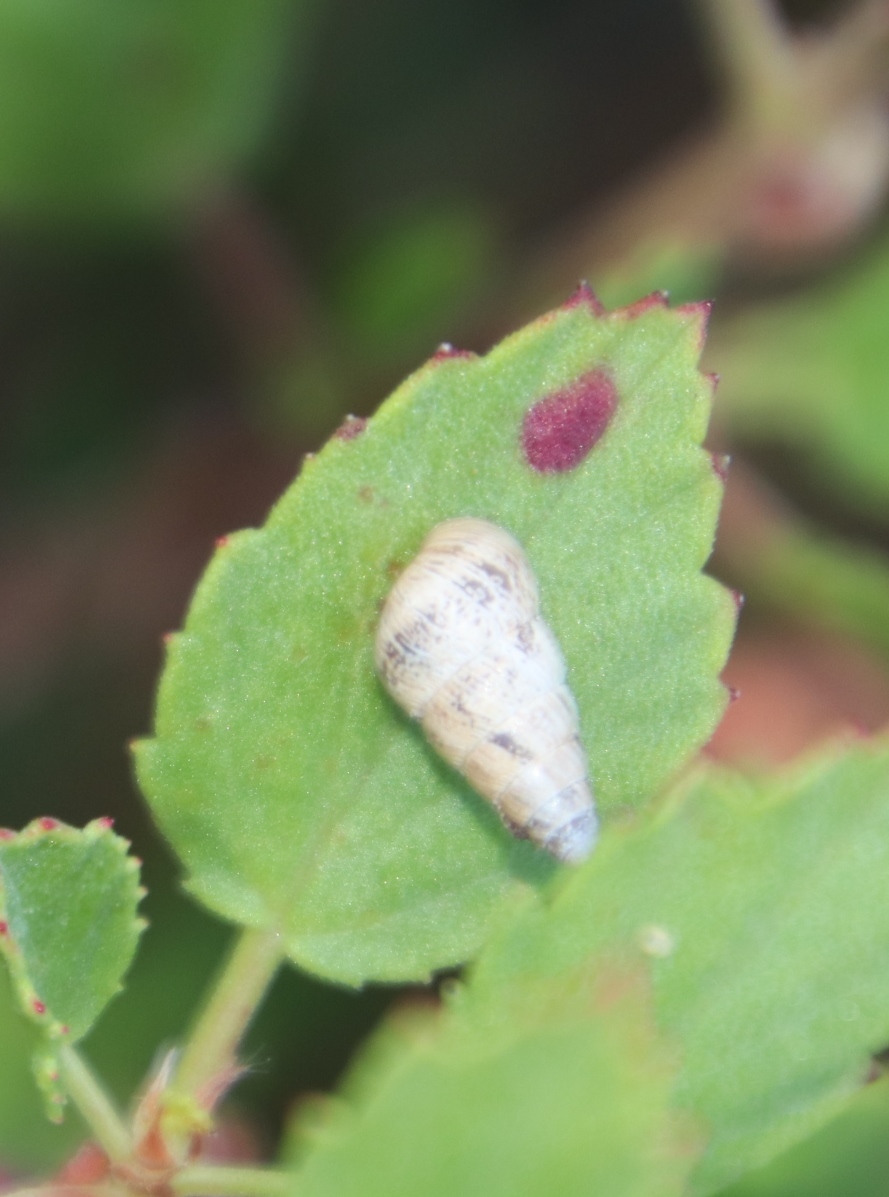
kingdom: Animalia
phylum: Mollusca
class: Gastropoda
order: Stylommatophora
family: Geomitridae
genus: Cochlicella
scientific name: Cochlicella barbara
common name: Potbellied helicellid
